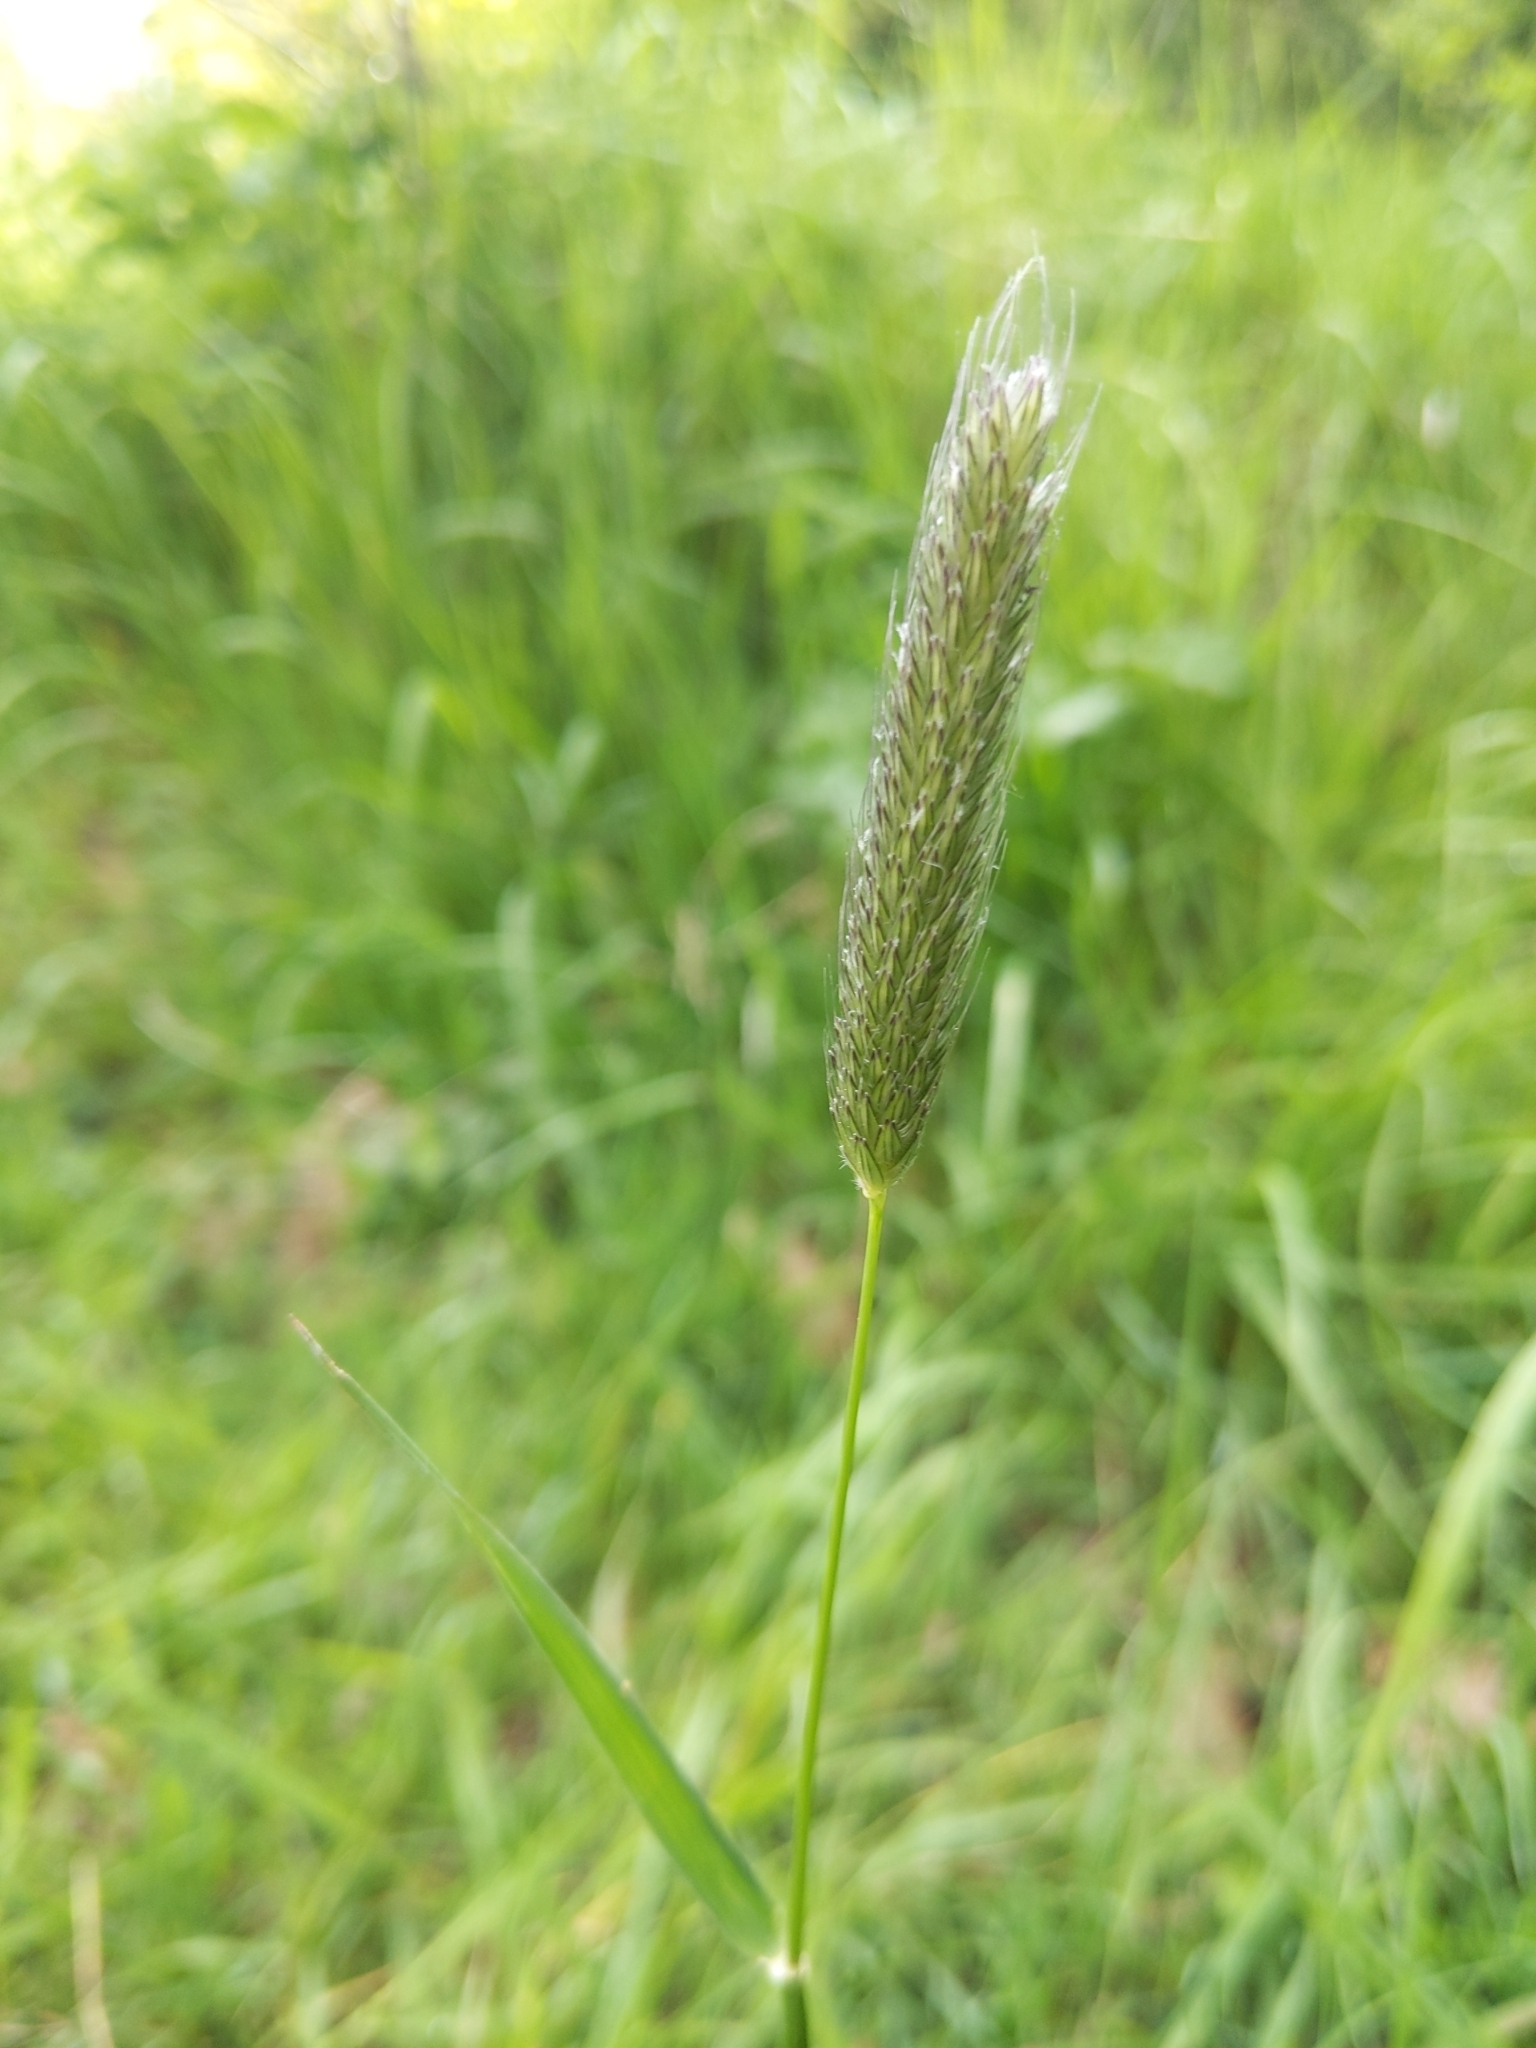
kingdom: Plantae
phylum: Tracheophyta
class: Liliopsida
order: Poales
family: Poaceae
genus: Alopecurus
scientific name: Alopecurus pratensis
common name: Meadow foxtail
